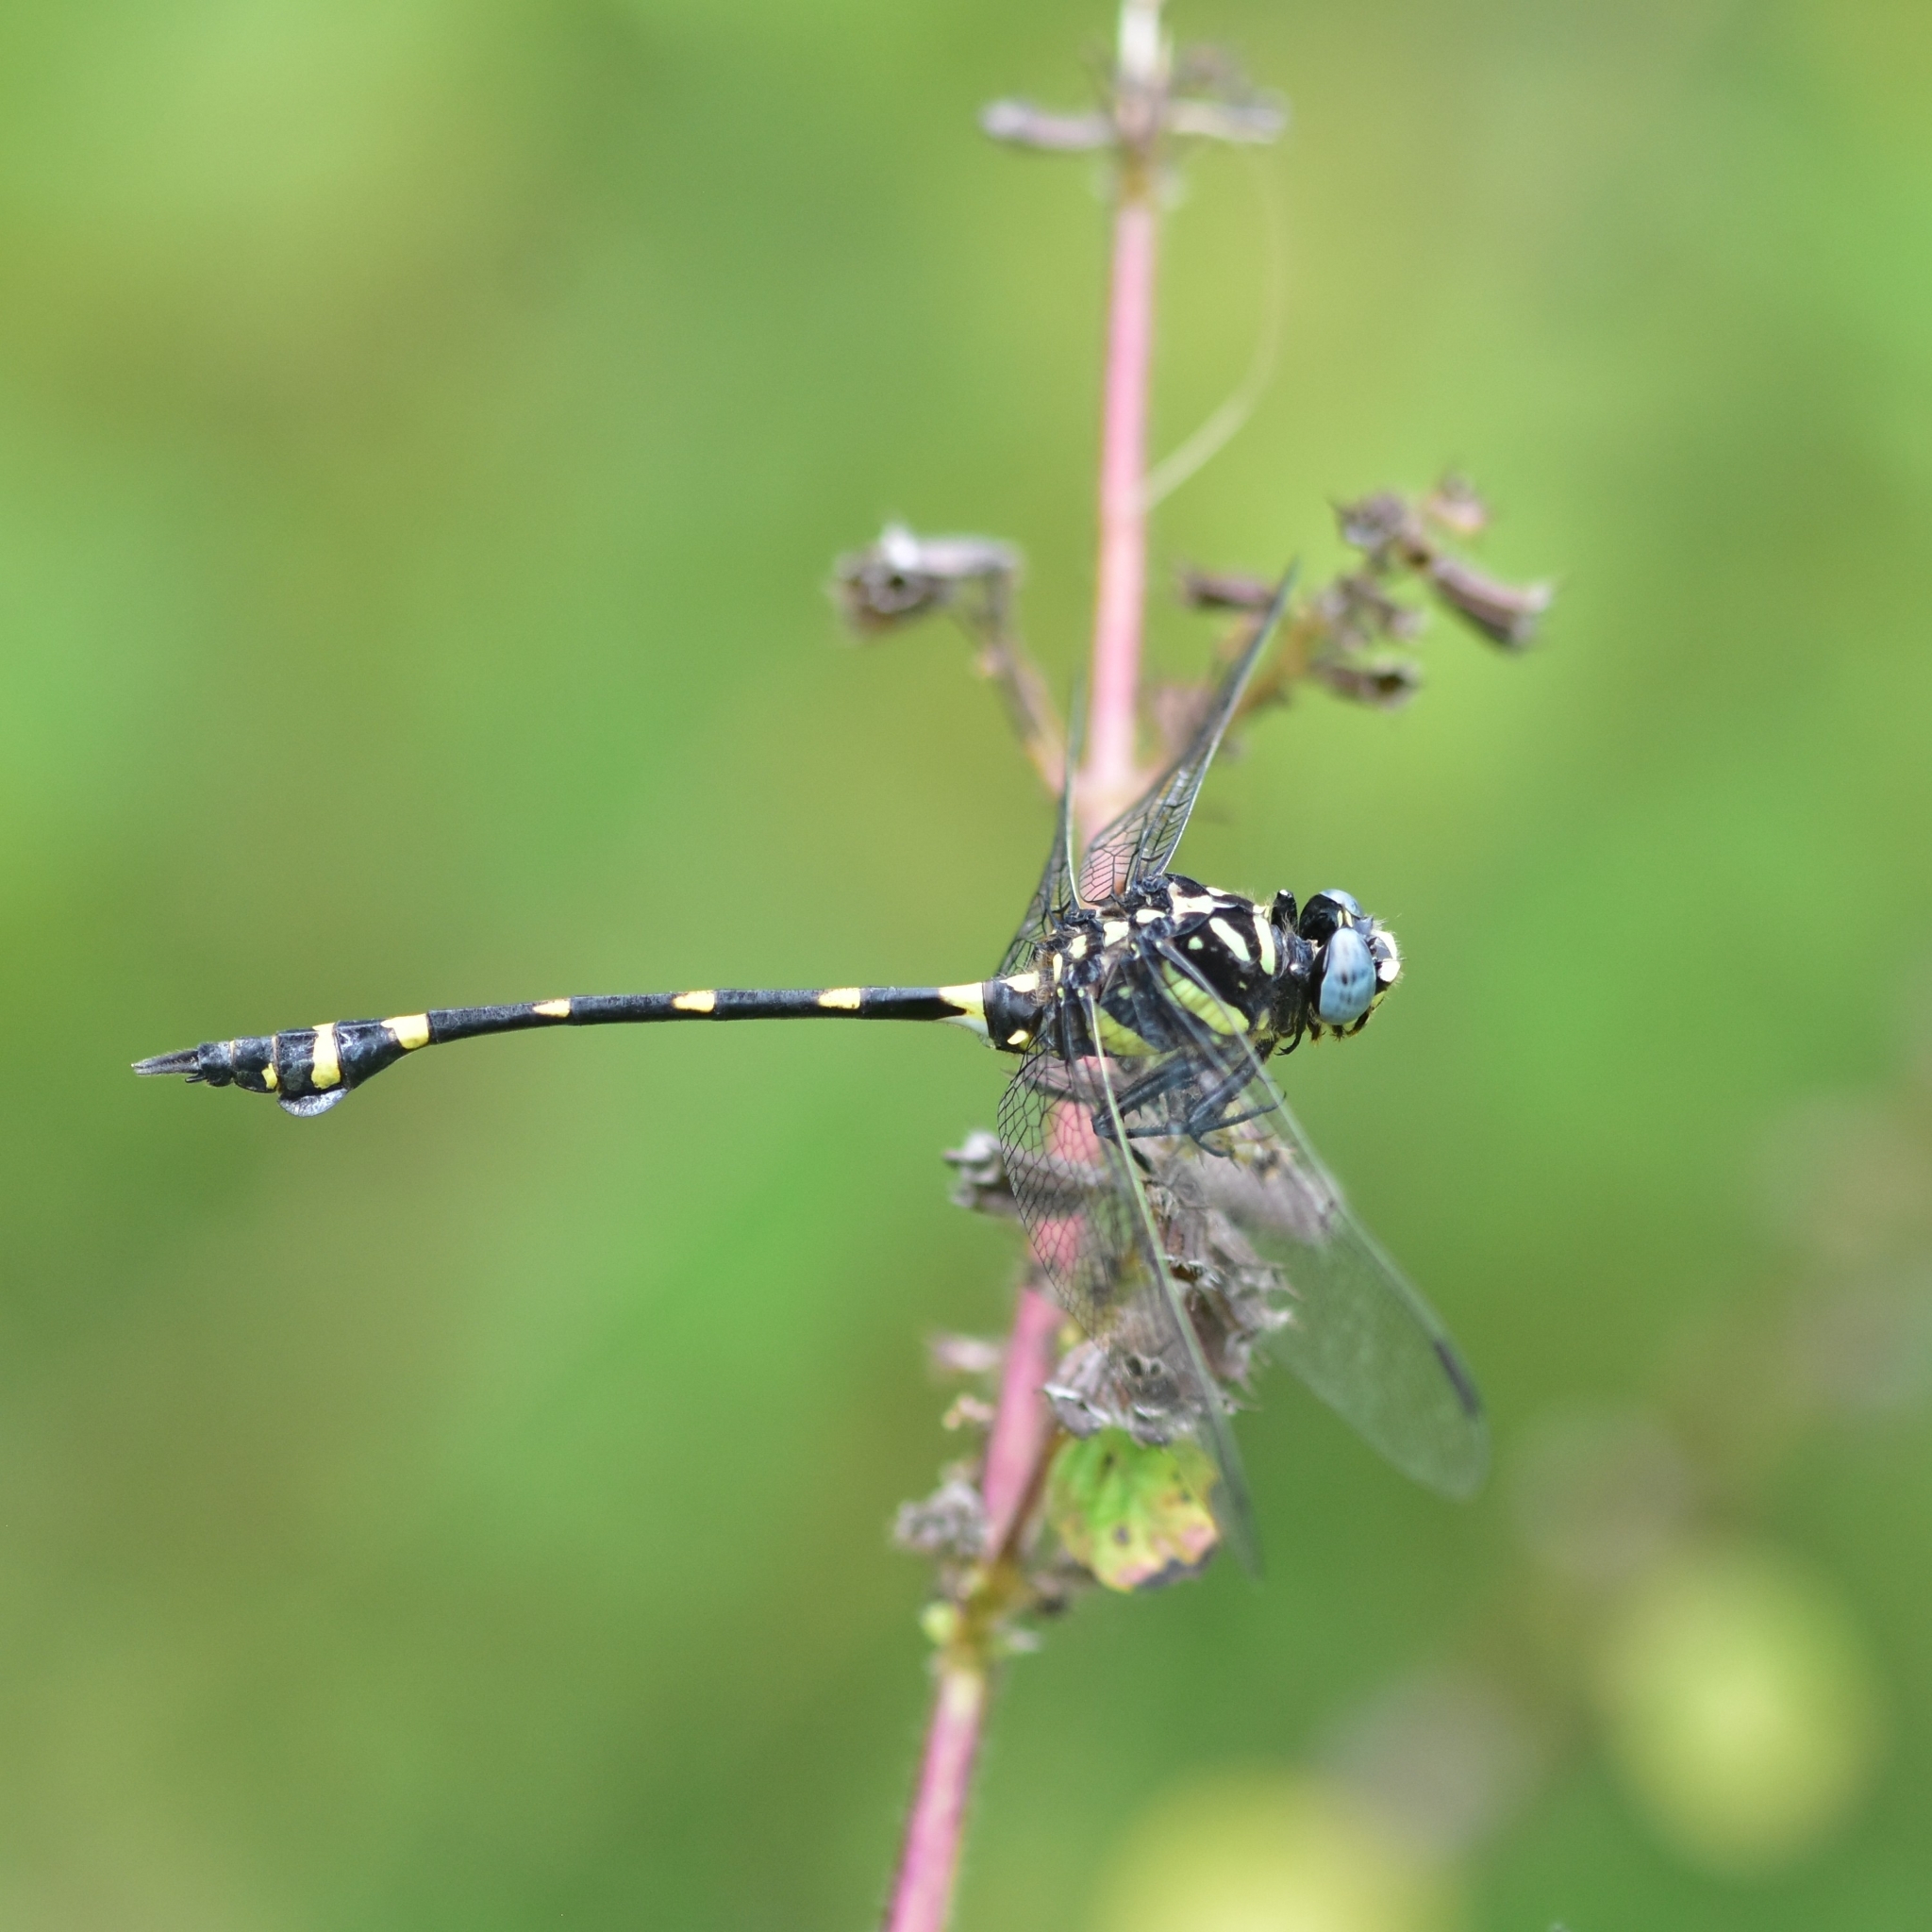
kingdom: Animalia
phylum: Arthropoda
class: Insecta
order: Odonata
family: Gomphidae
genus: Ictinogomphus
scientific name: Ictinogomphus rapax
